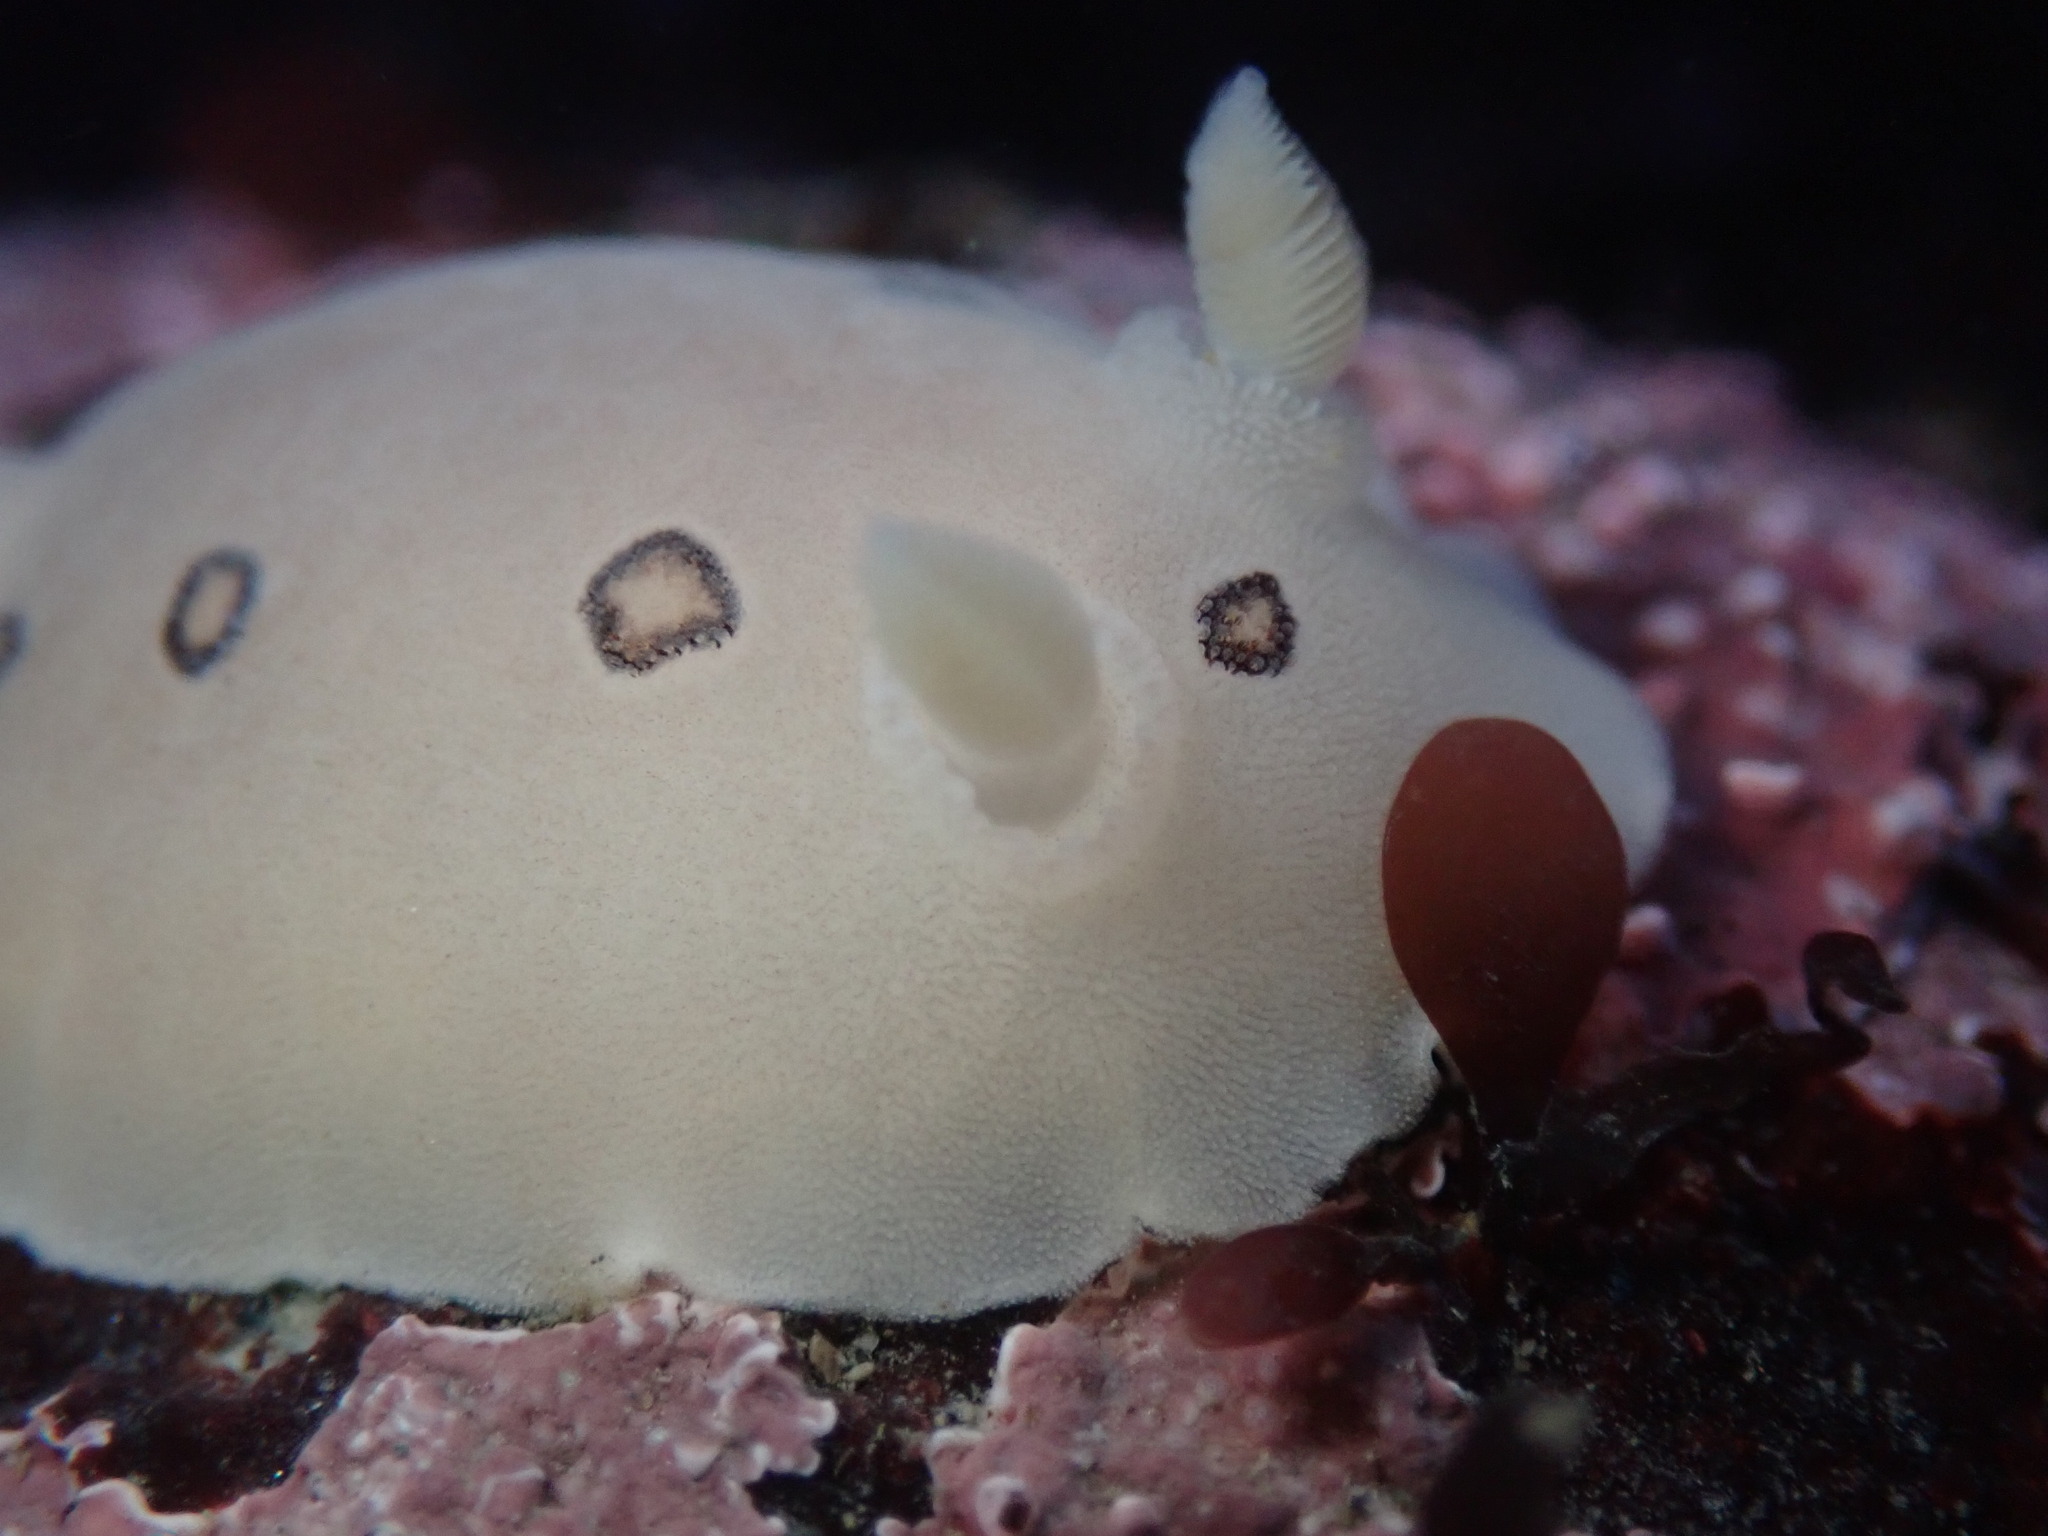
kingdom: Animalia
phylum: Mollusca
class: Gastropoda
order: Nudibranchia
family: Discodorididae
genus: Diaulula
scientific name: Diaulula sandiegensis
